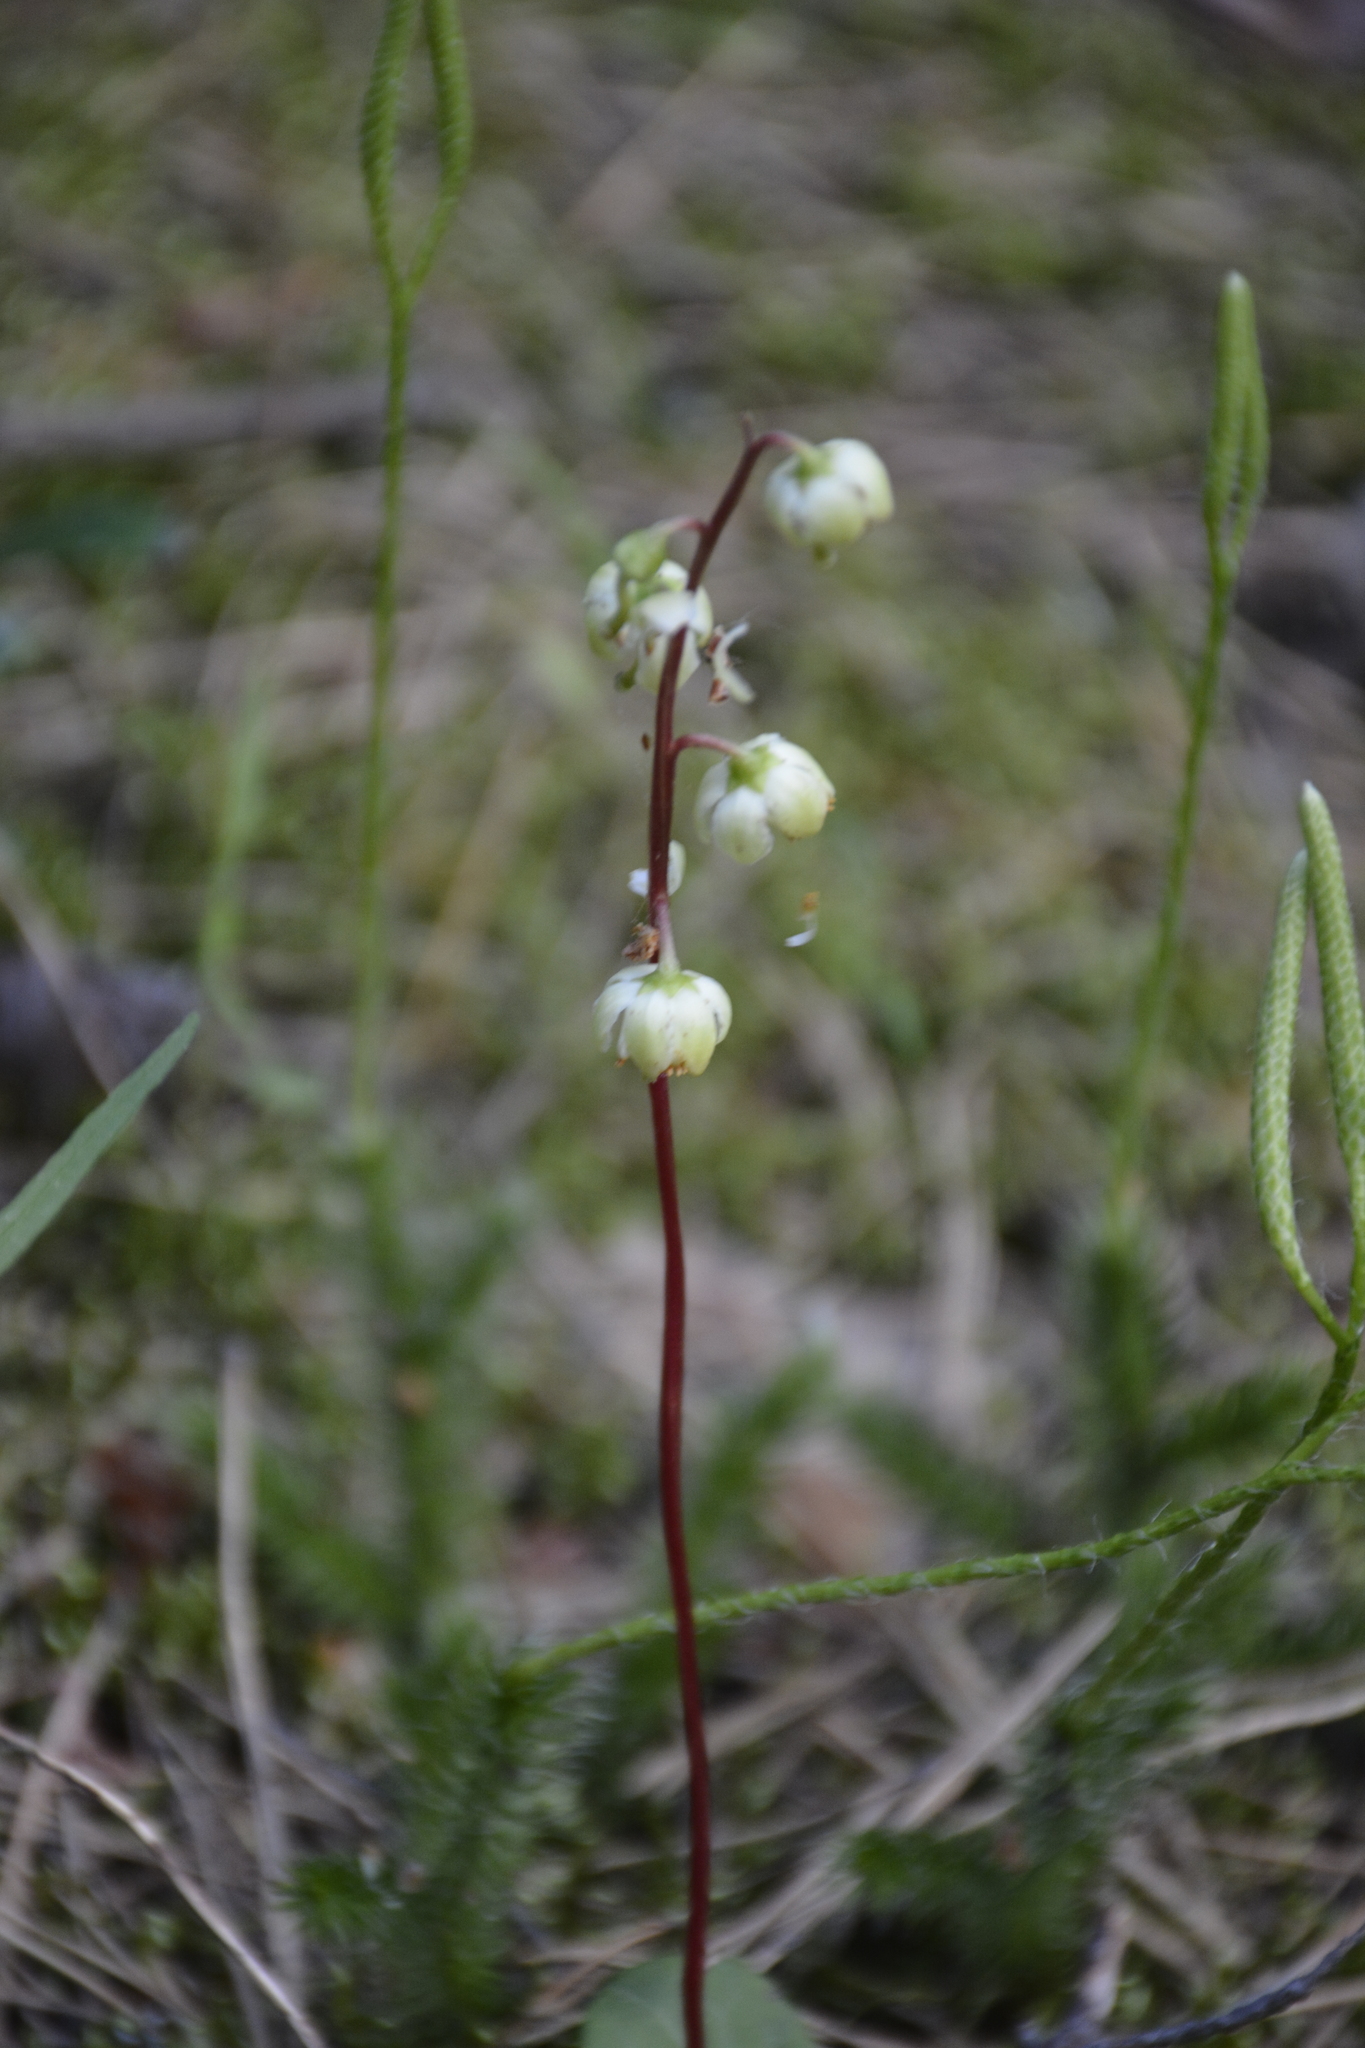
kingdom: Plantae
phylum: Tracheophyta
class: Magnoliopsida
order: Ericales
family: Ericaceae
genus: Pyrola
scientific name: Pyrola chlorantha
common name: Green wintergreen
